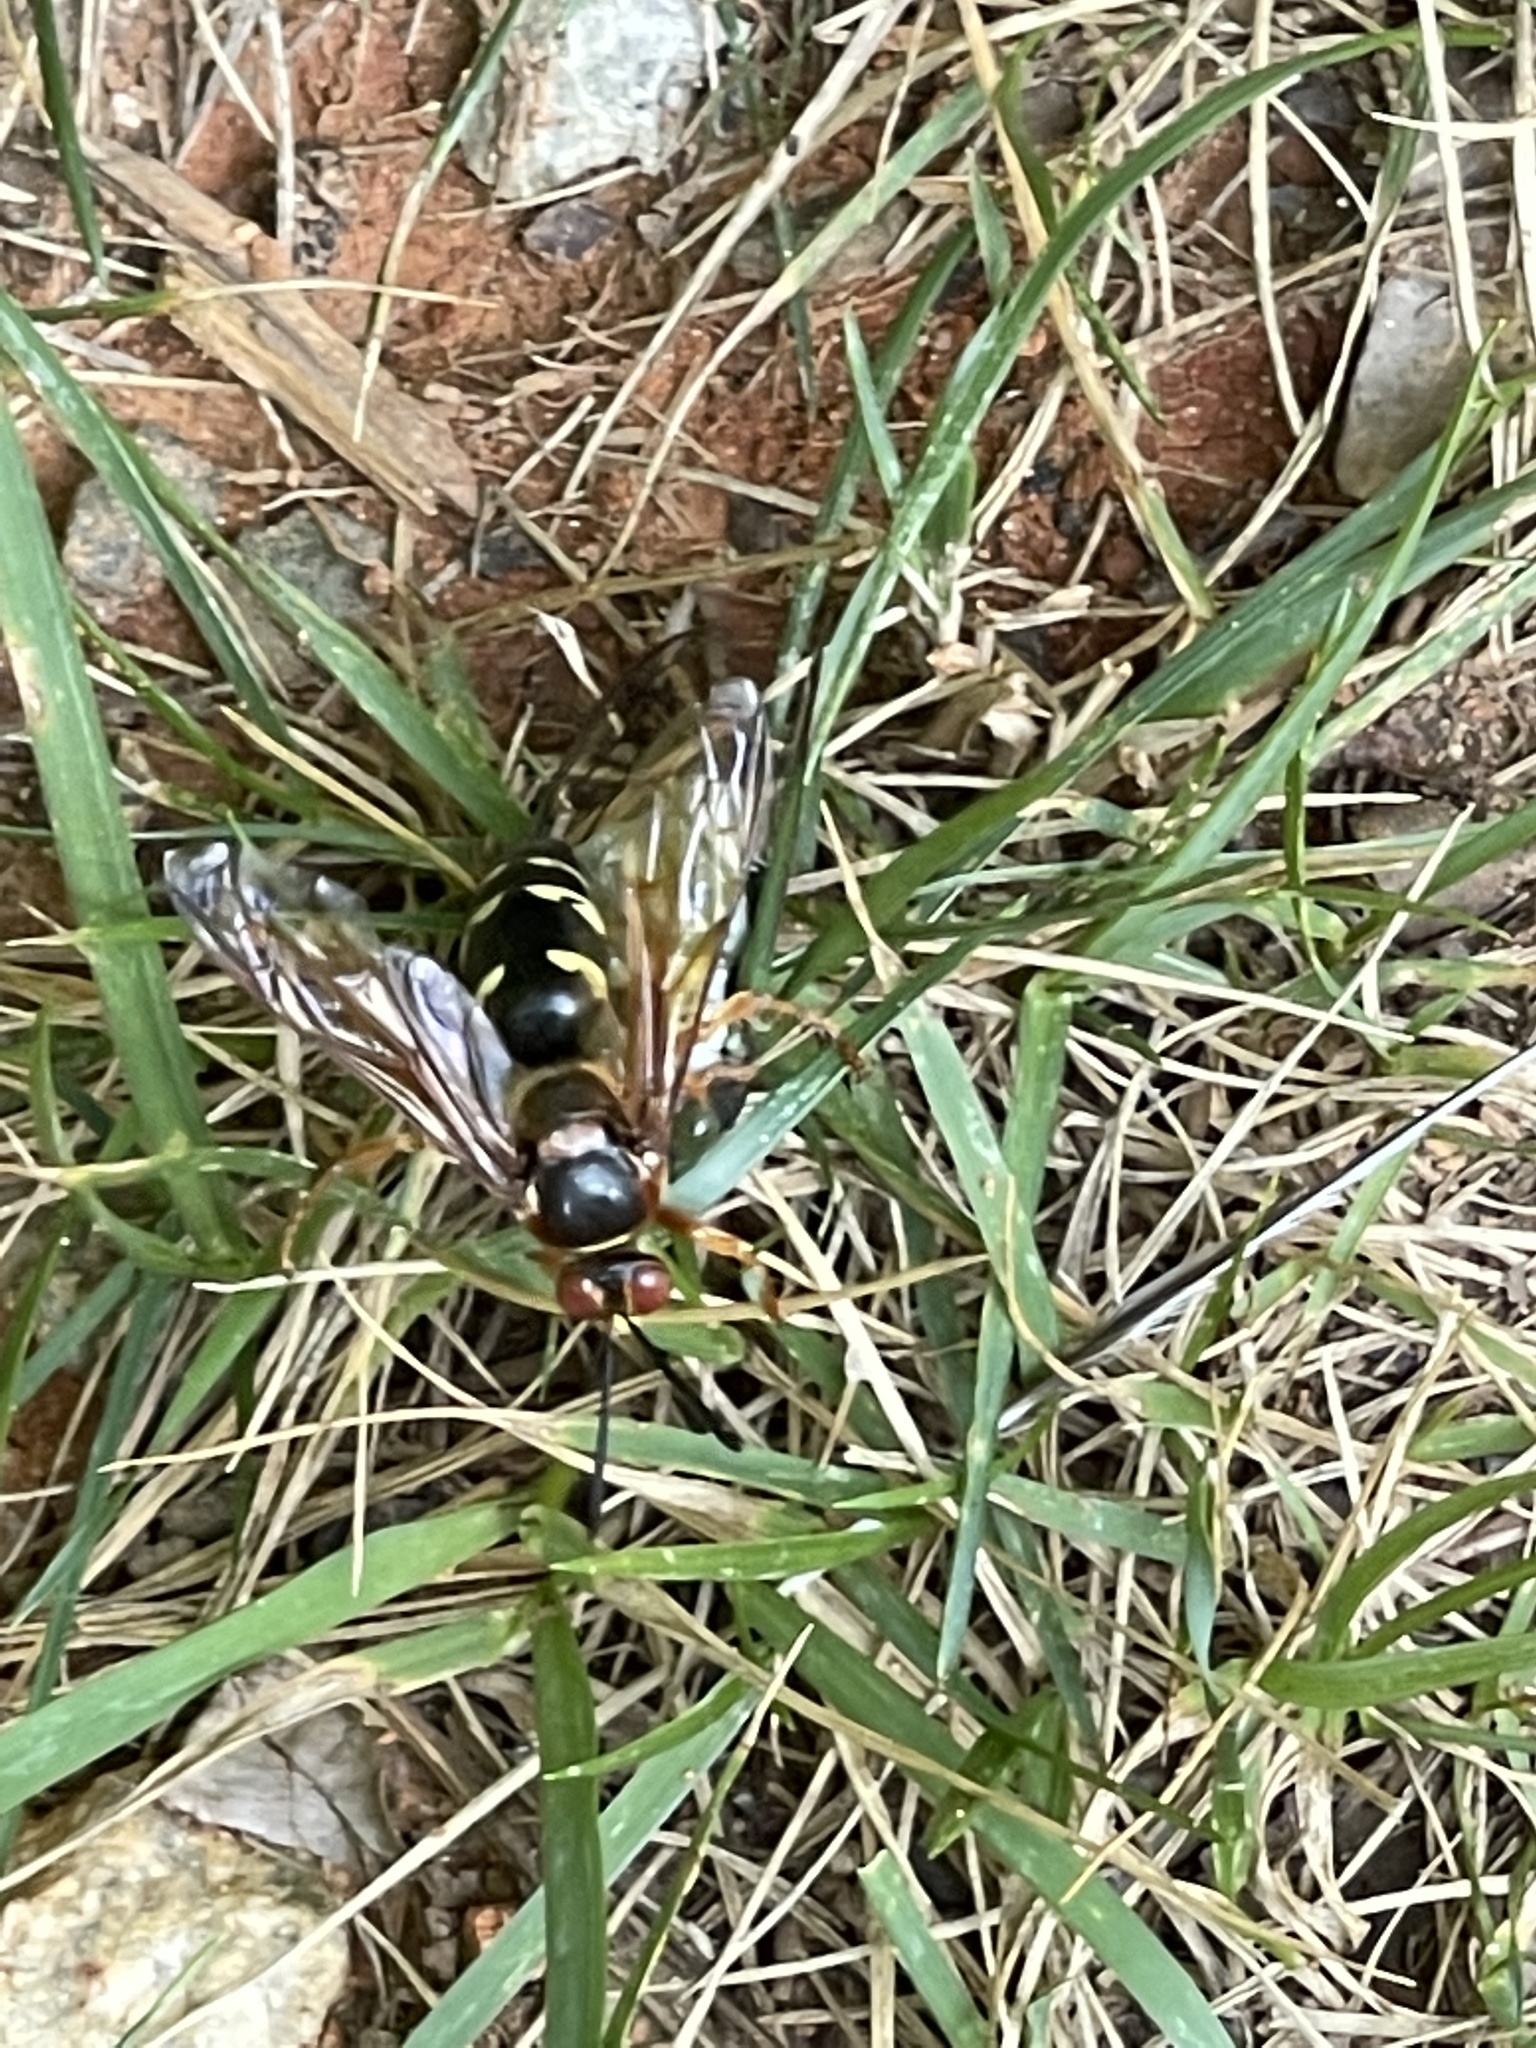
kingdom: Animalia
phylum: Arthropoda
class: Insecta
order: Hymenoptera
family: Crabronidae
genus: Sphecius
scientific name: Sphecius speciosus
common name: Cicada killer
